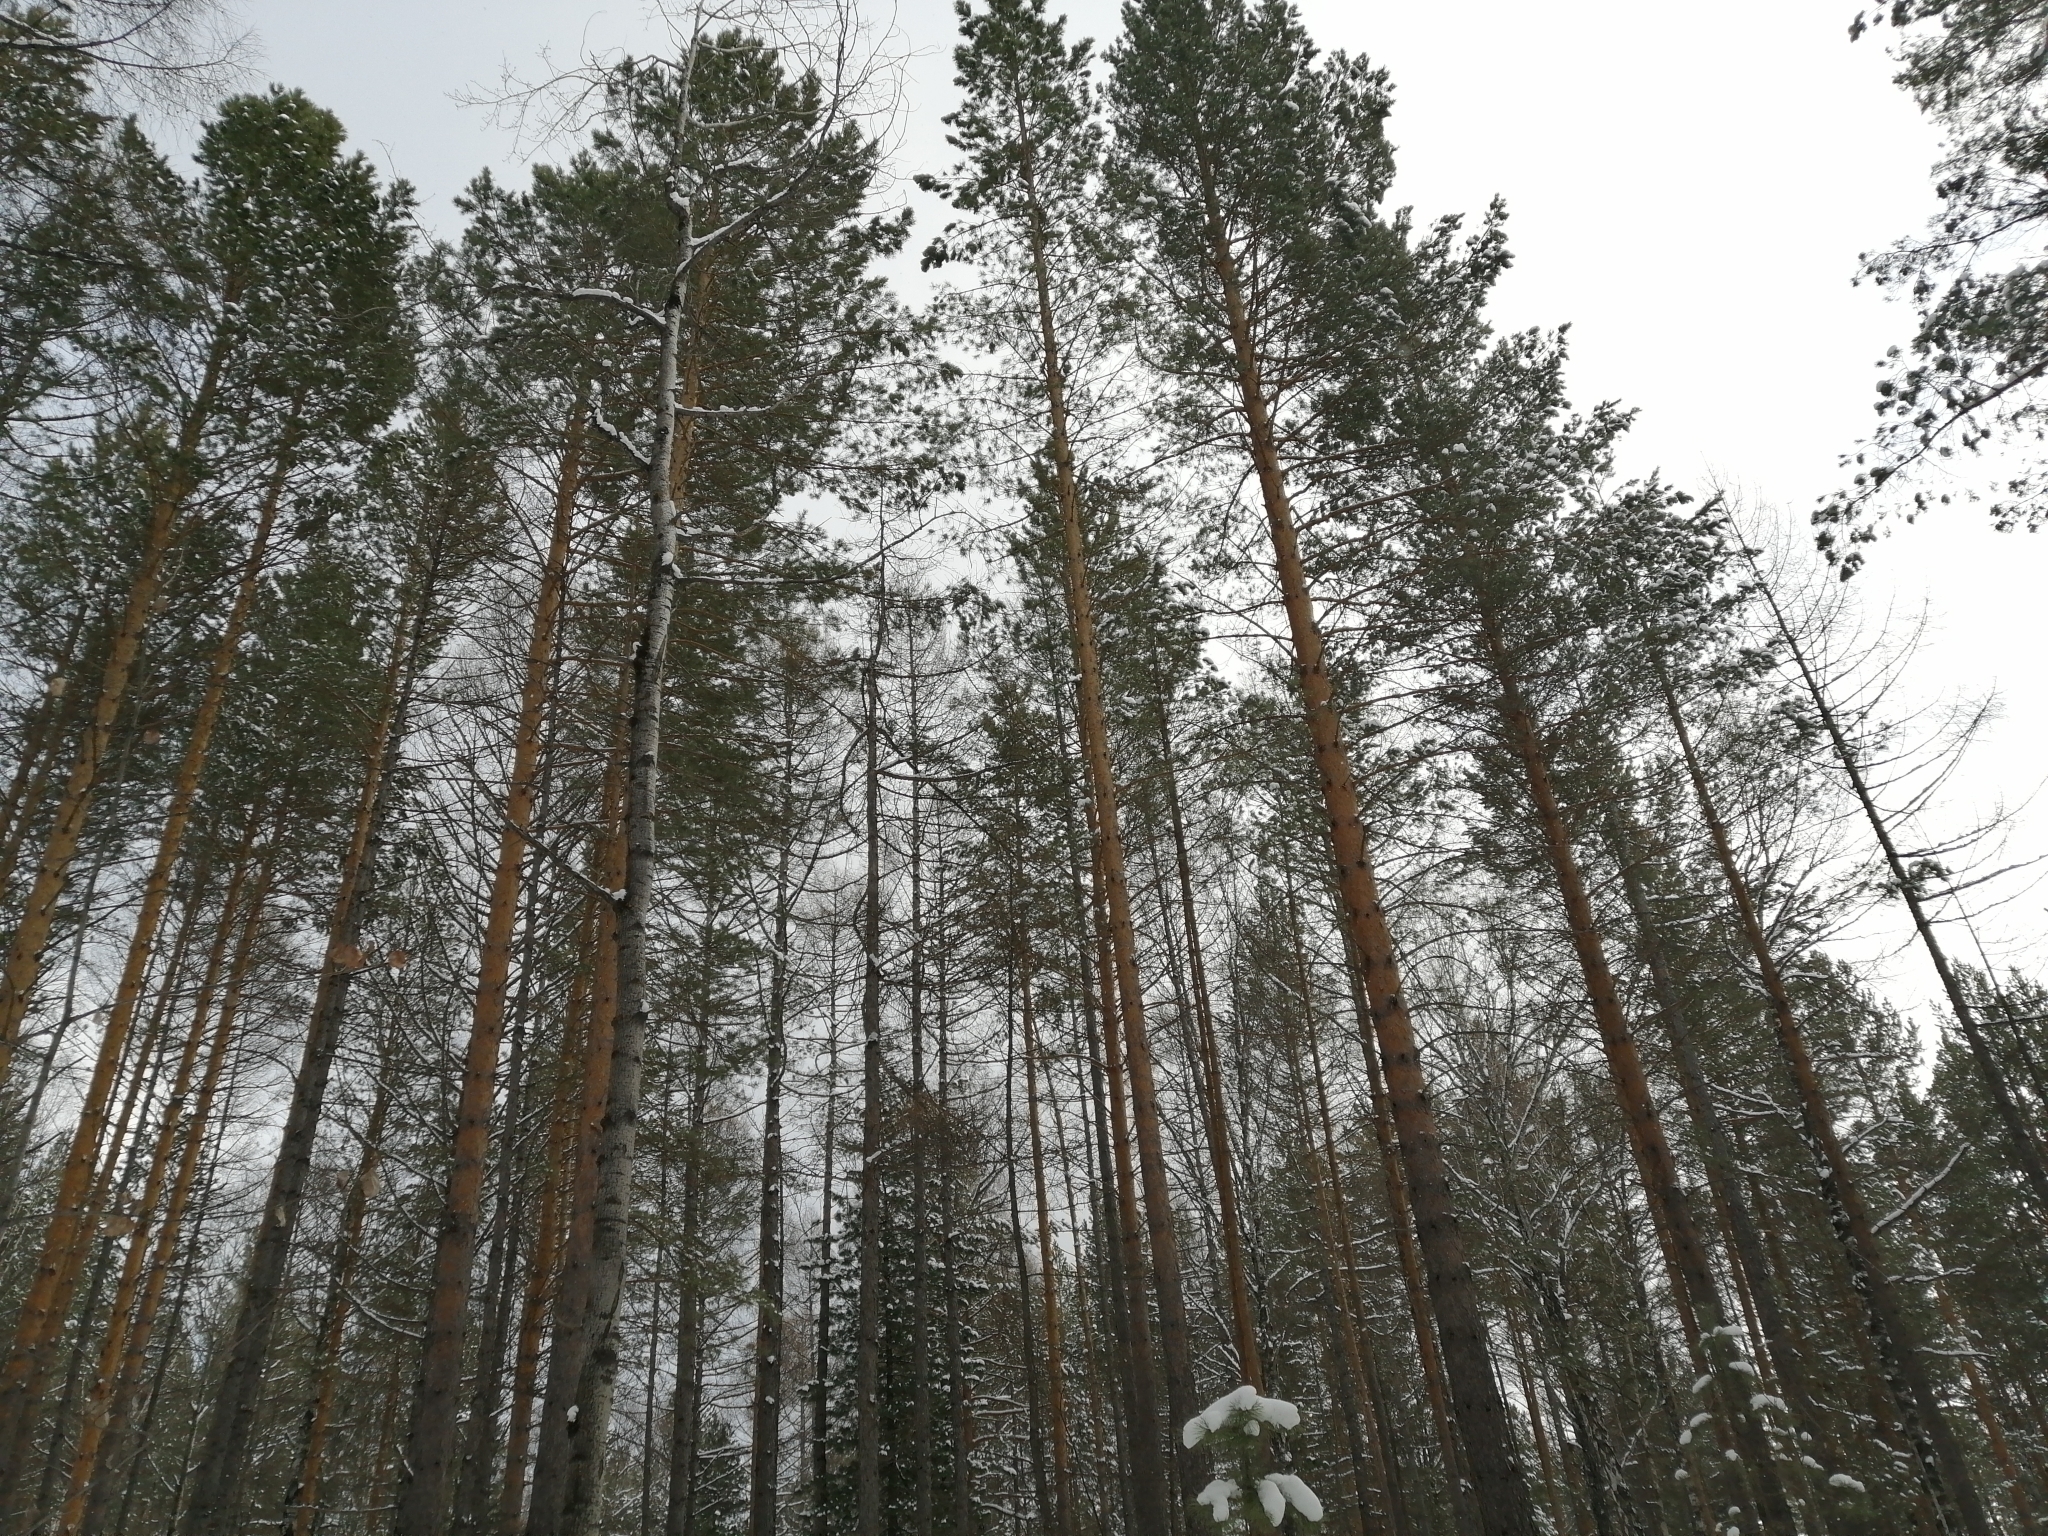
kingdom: Plantae
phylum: Tracheophyta
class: Pinopsida
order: Pinales
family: Pinaceae
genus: Pinus
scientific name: Pinus sylvestris
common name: Scots pine
